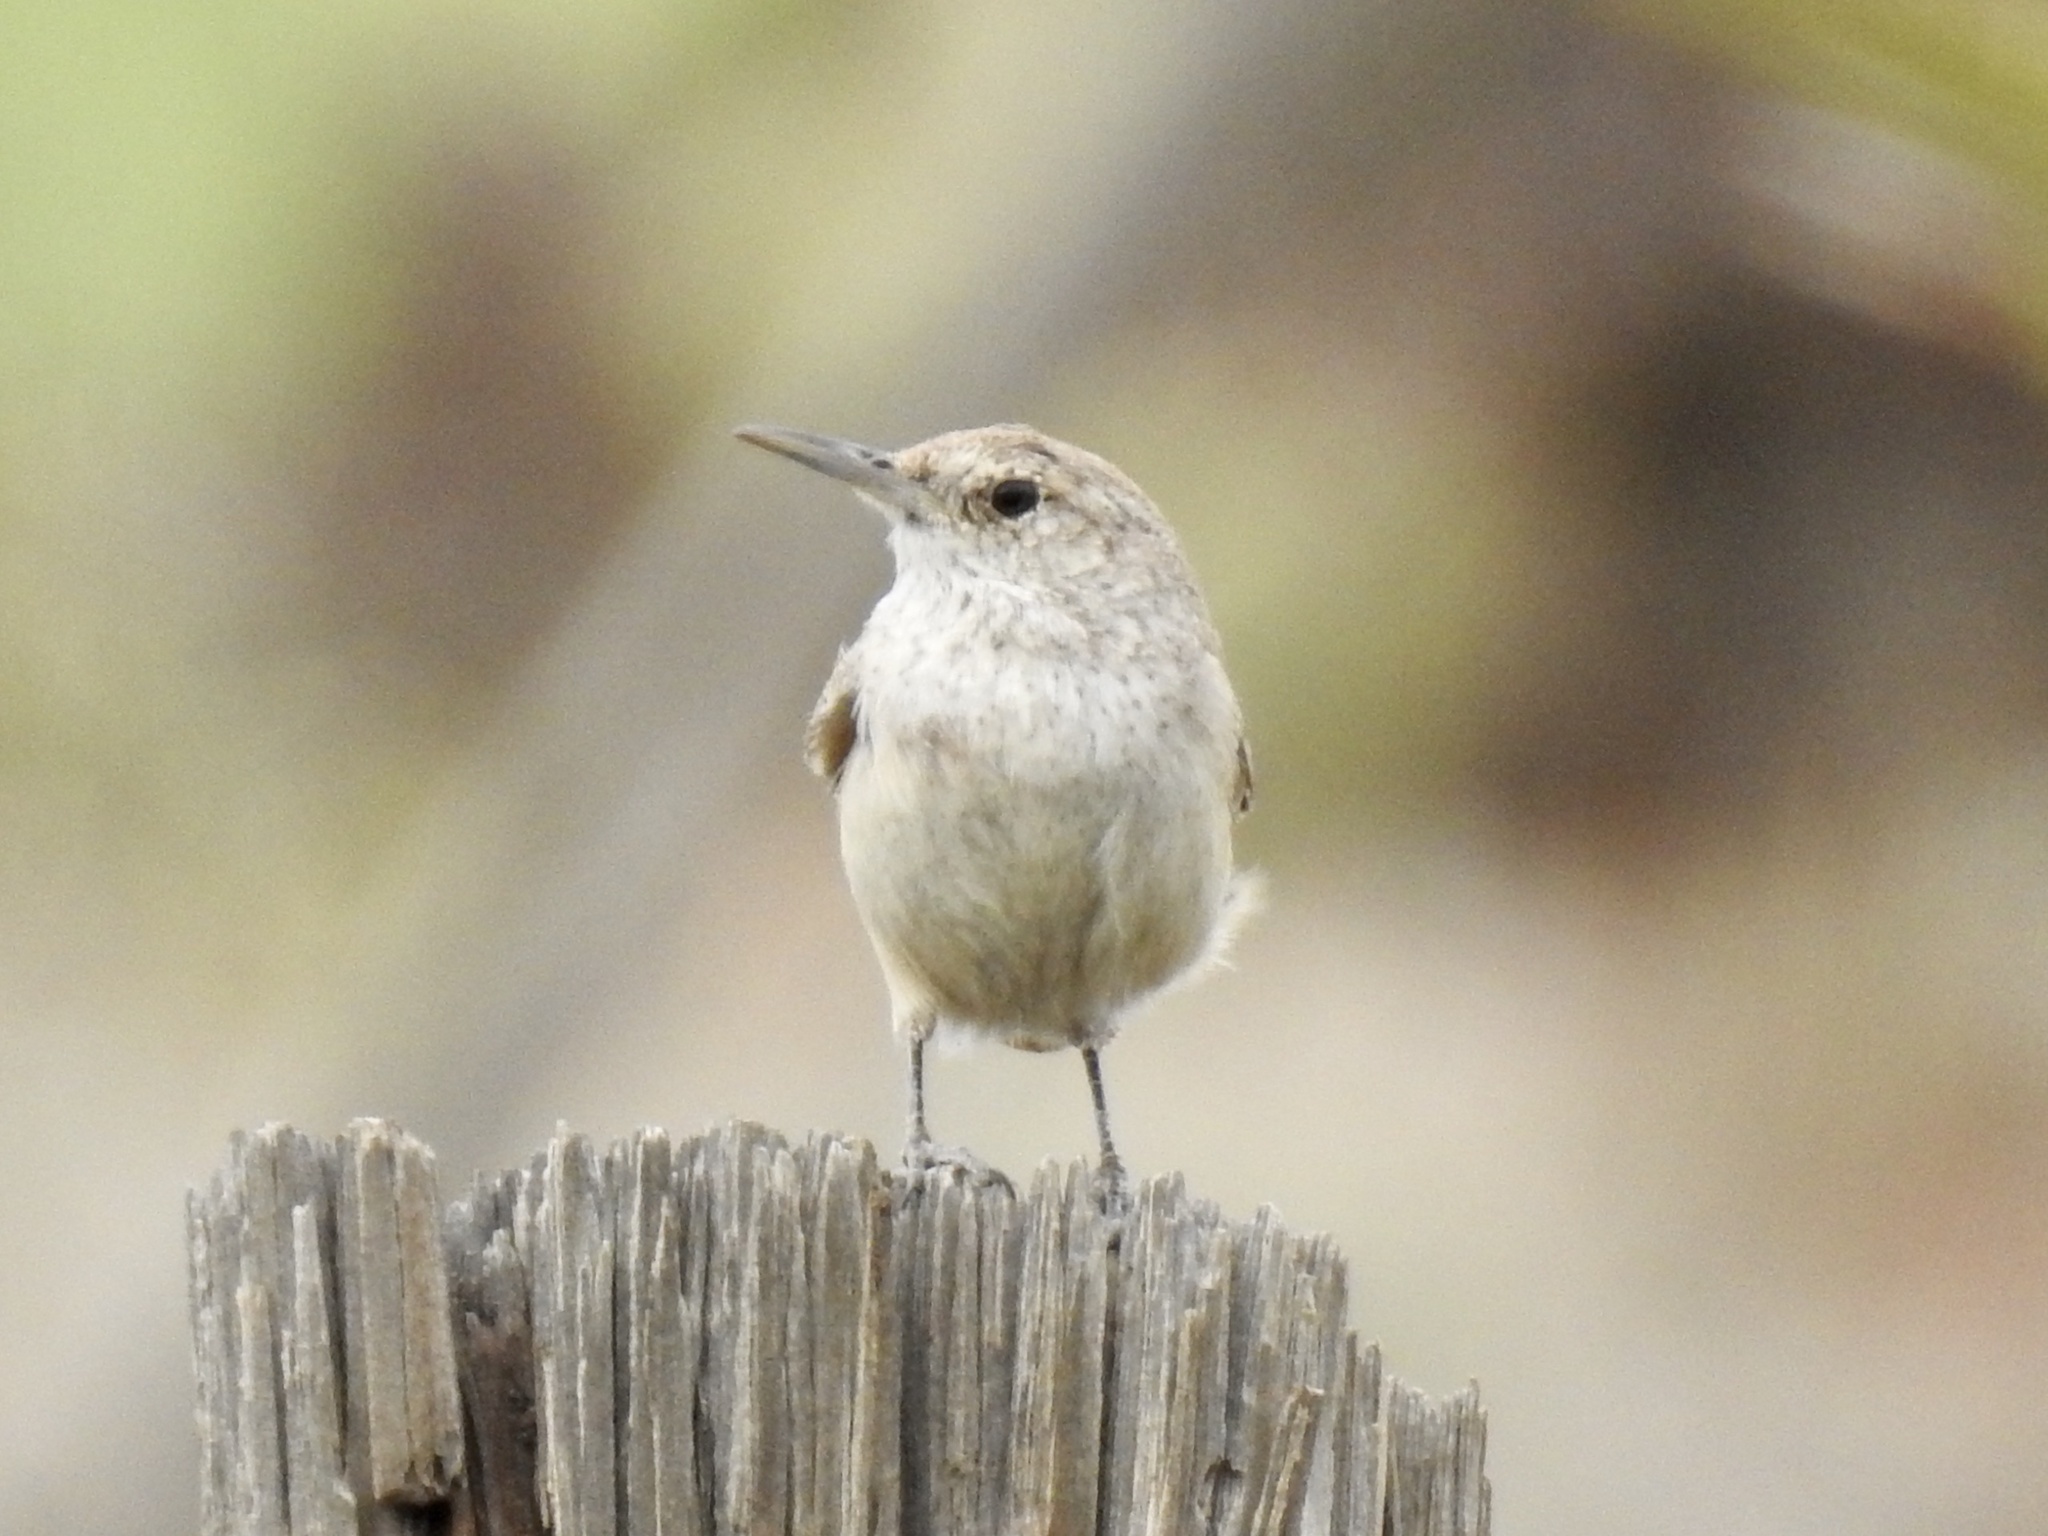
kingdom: Animalia
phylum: Chordata
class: Aves
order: Passeriformes
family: Troglodytidae
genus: Salpinctes
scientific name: Salpinctes obsoletus
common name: Rock wren
